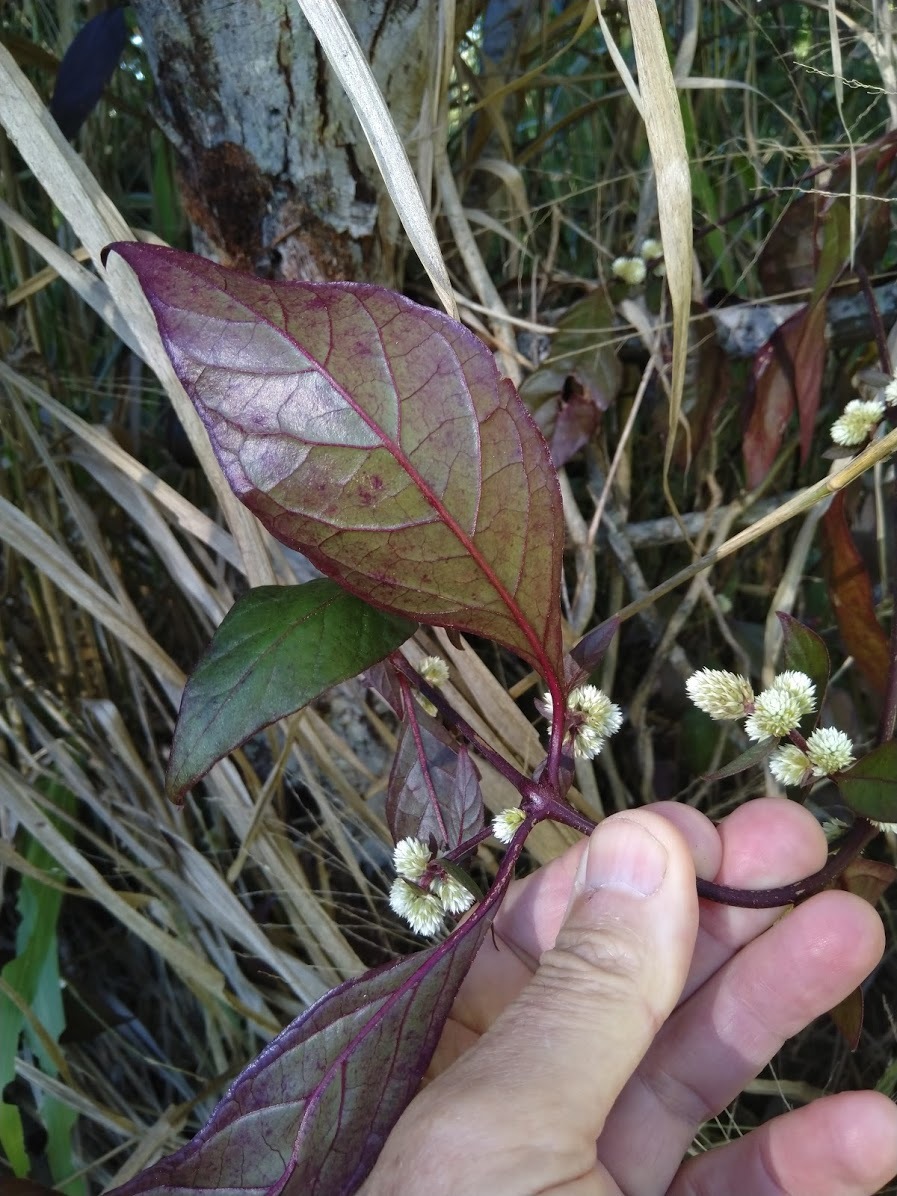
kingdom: Plantae
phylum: Tracheophyta
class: Magnoliopsida
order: Caryophyllales
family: Amaranthaceae
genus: Alternanthera
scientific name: Alternanthera brasiliana
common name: Brazilian joyweed
